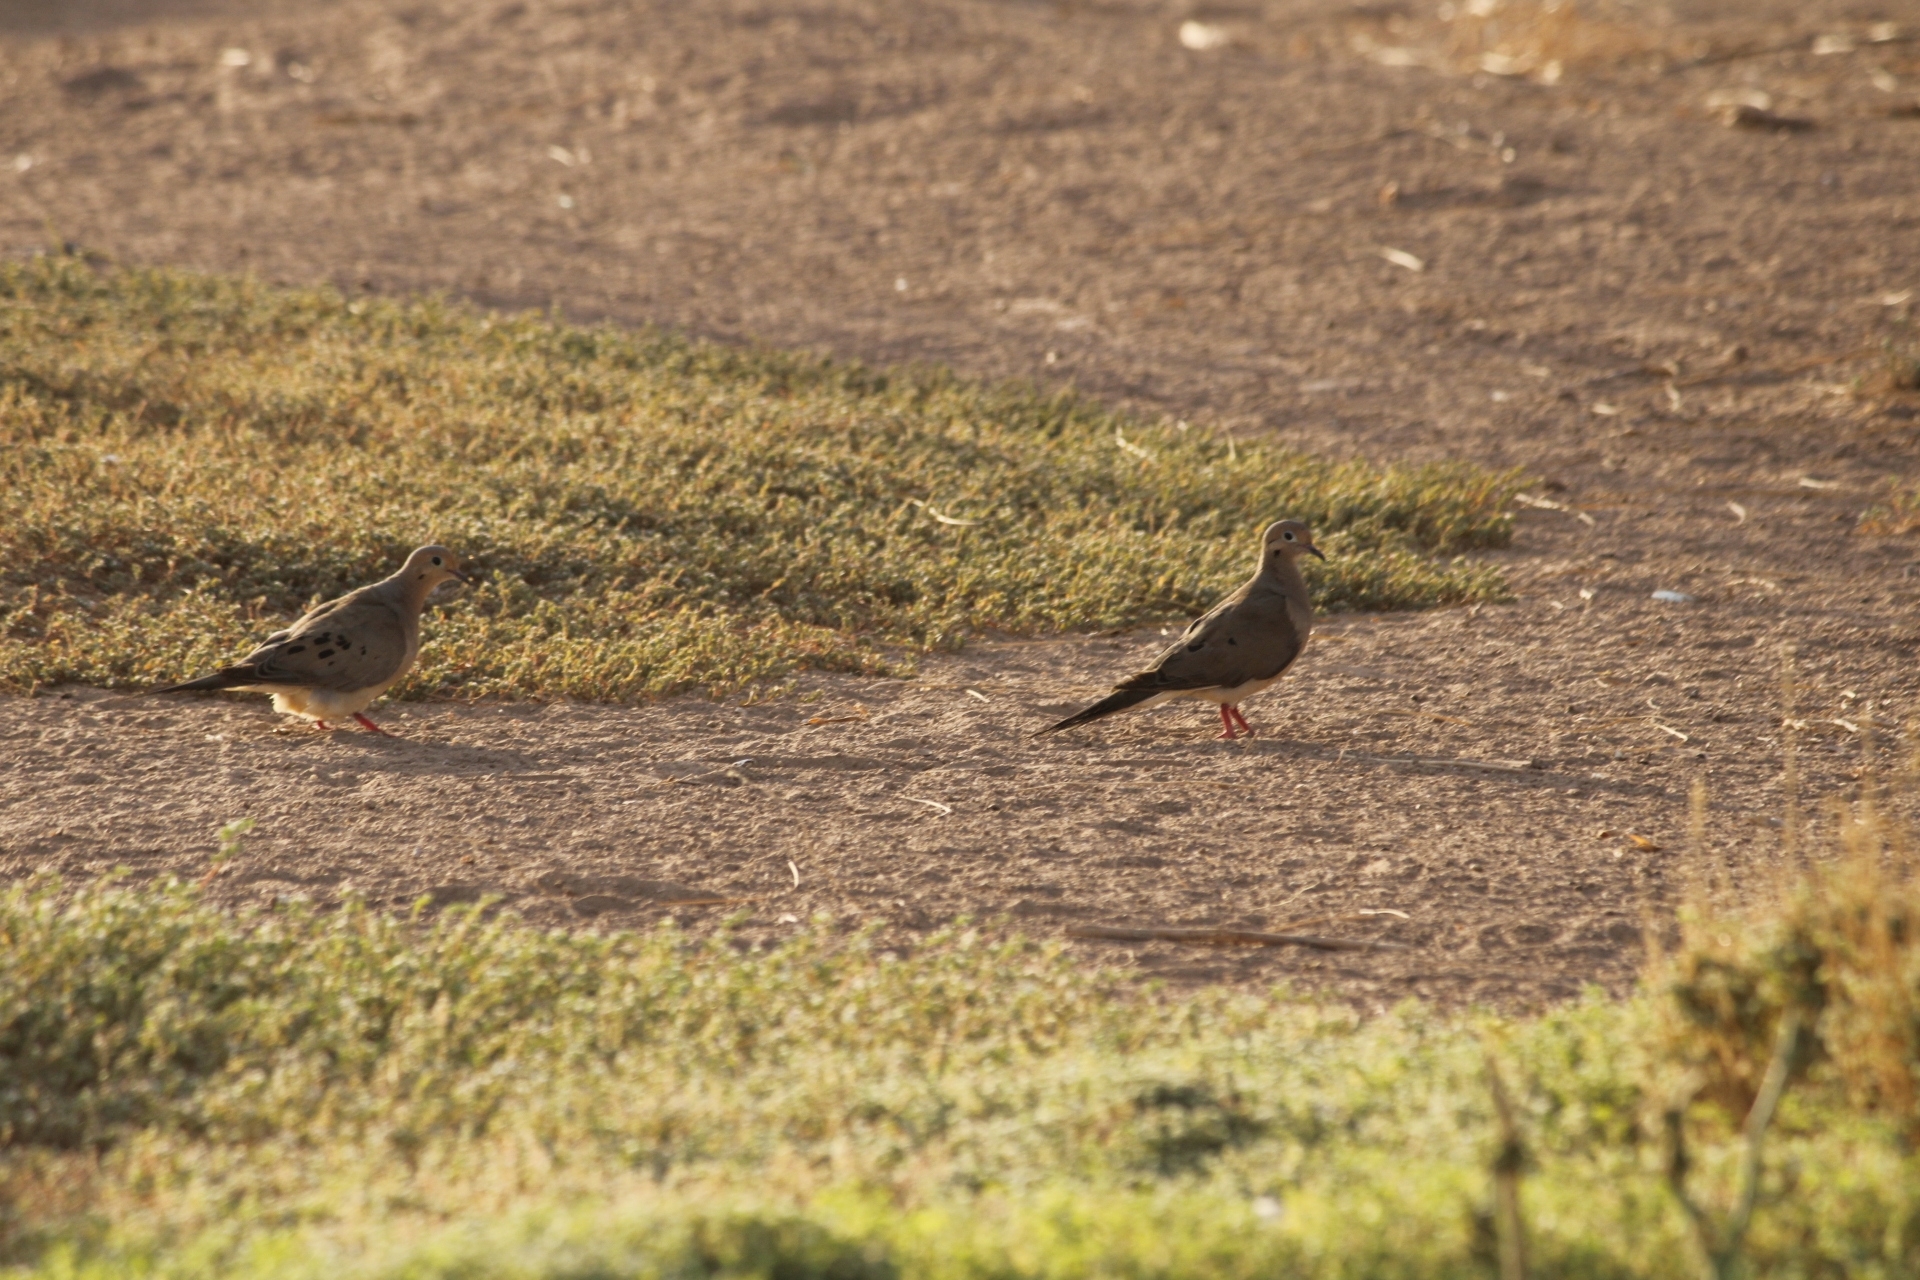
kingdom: Animalia
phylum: Chordata
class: Aves
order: Columbiformes
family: Columbidae
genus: Zenaida
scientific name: Zenaida macroura
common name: Mourning dove
